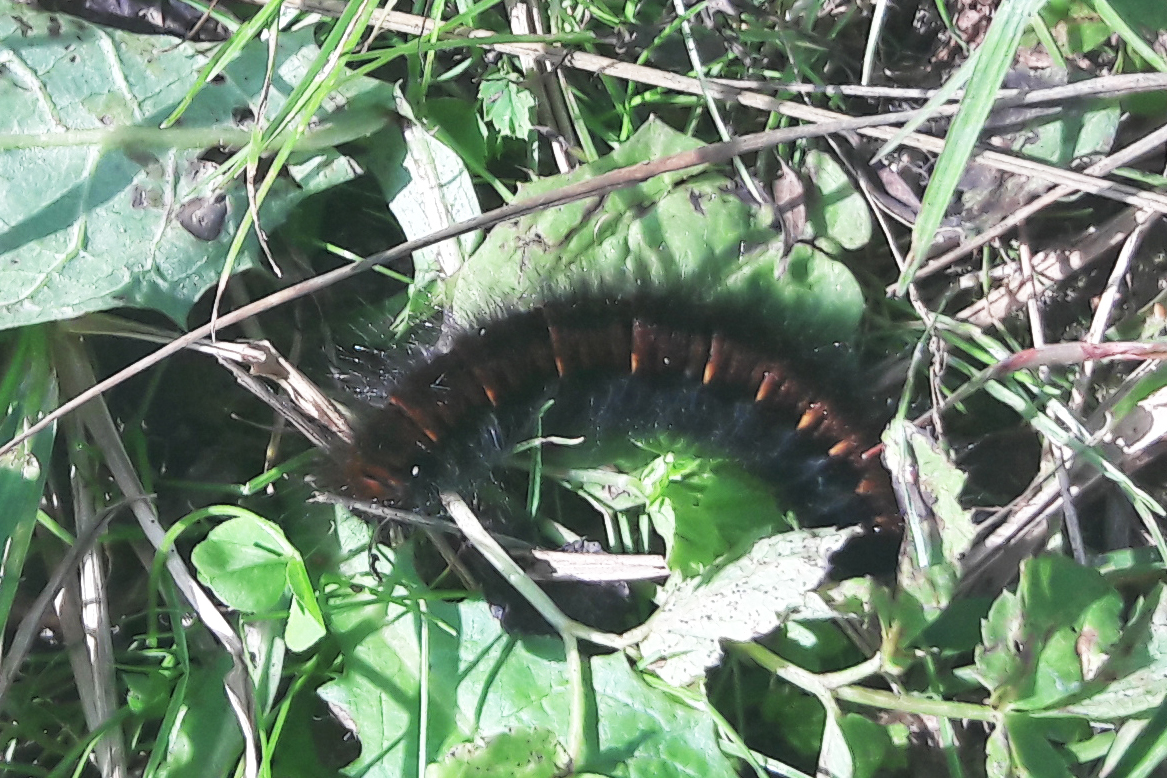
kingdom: Animalia
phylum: Arthropoda
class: Insecta
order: Lepidoptera
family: Lasiocampidae
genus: Macrothylacia
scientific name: Macrothylacia rubi
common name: Fox moth
